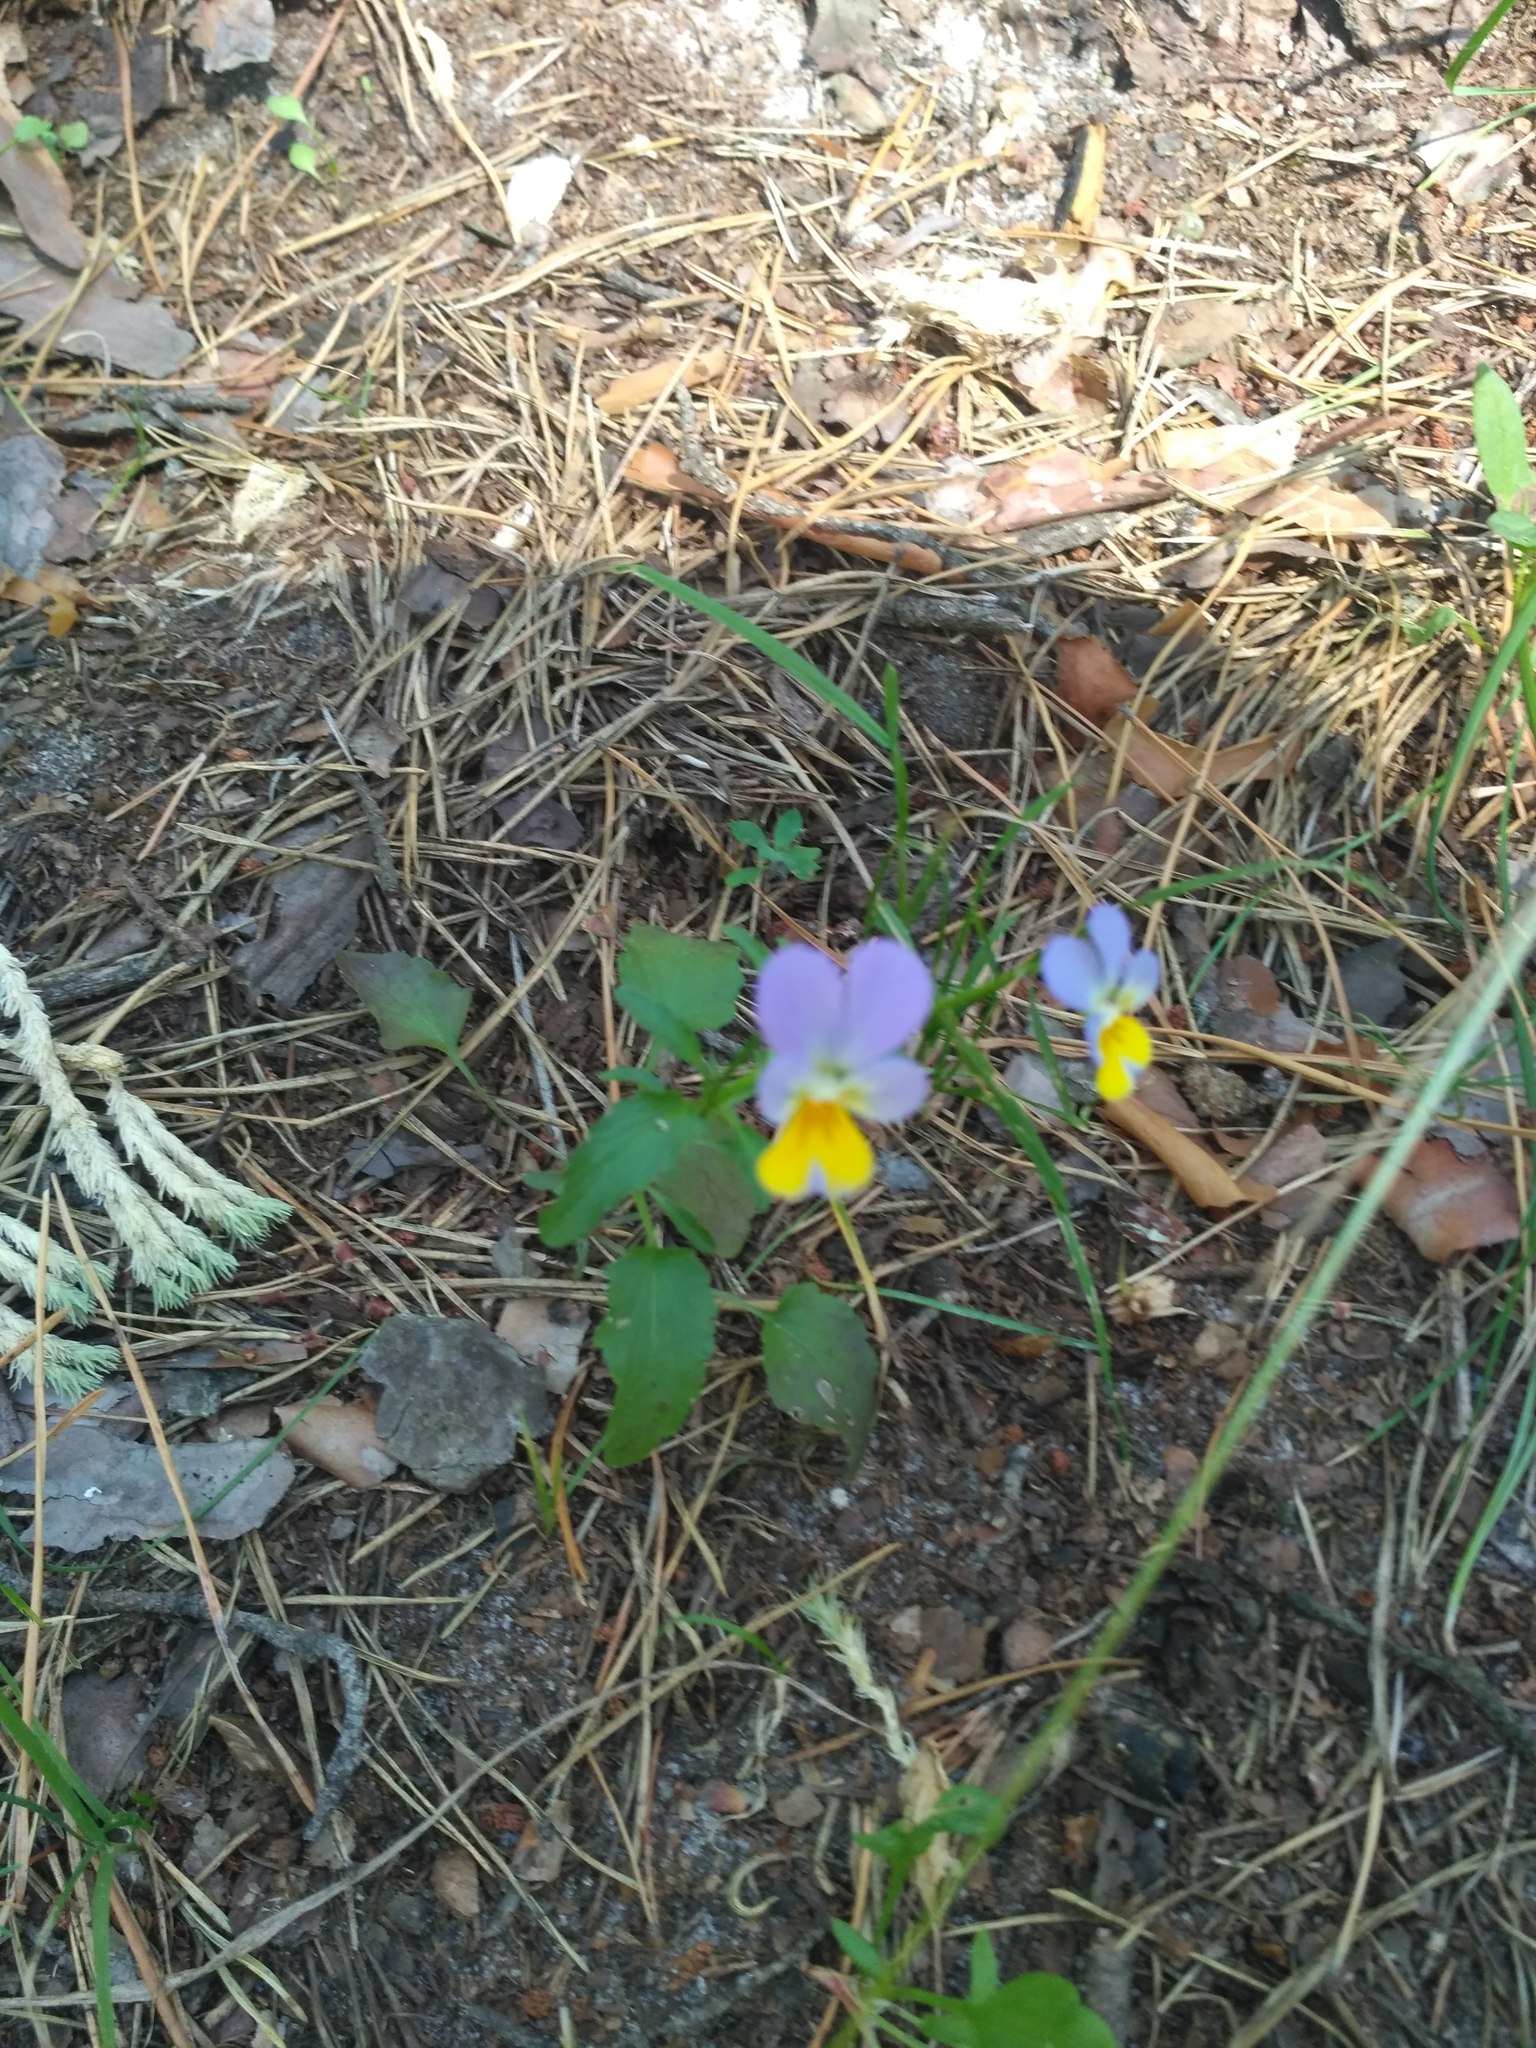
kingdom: Plantae
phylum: Tracheophyta
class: Magnoliopsida
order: Malpighiales
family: Violaceae
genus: Viola
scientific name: Viola tricolor
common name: Pansy
